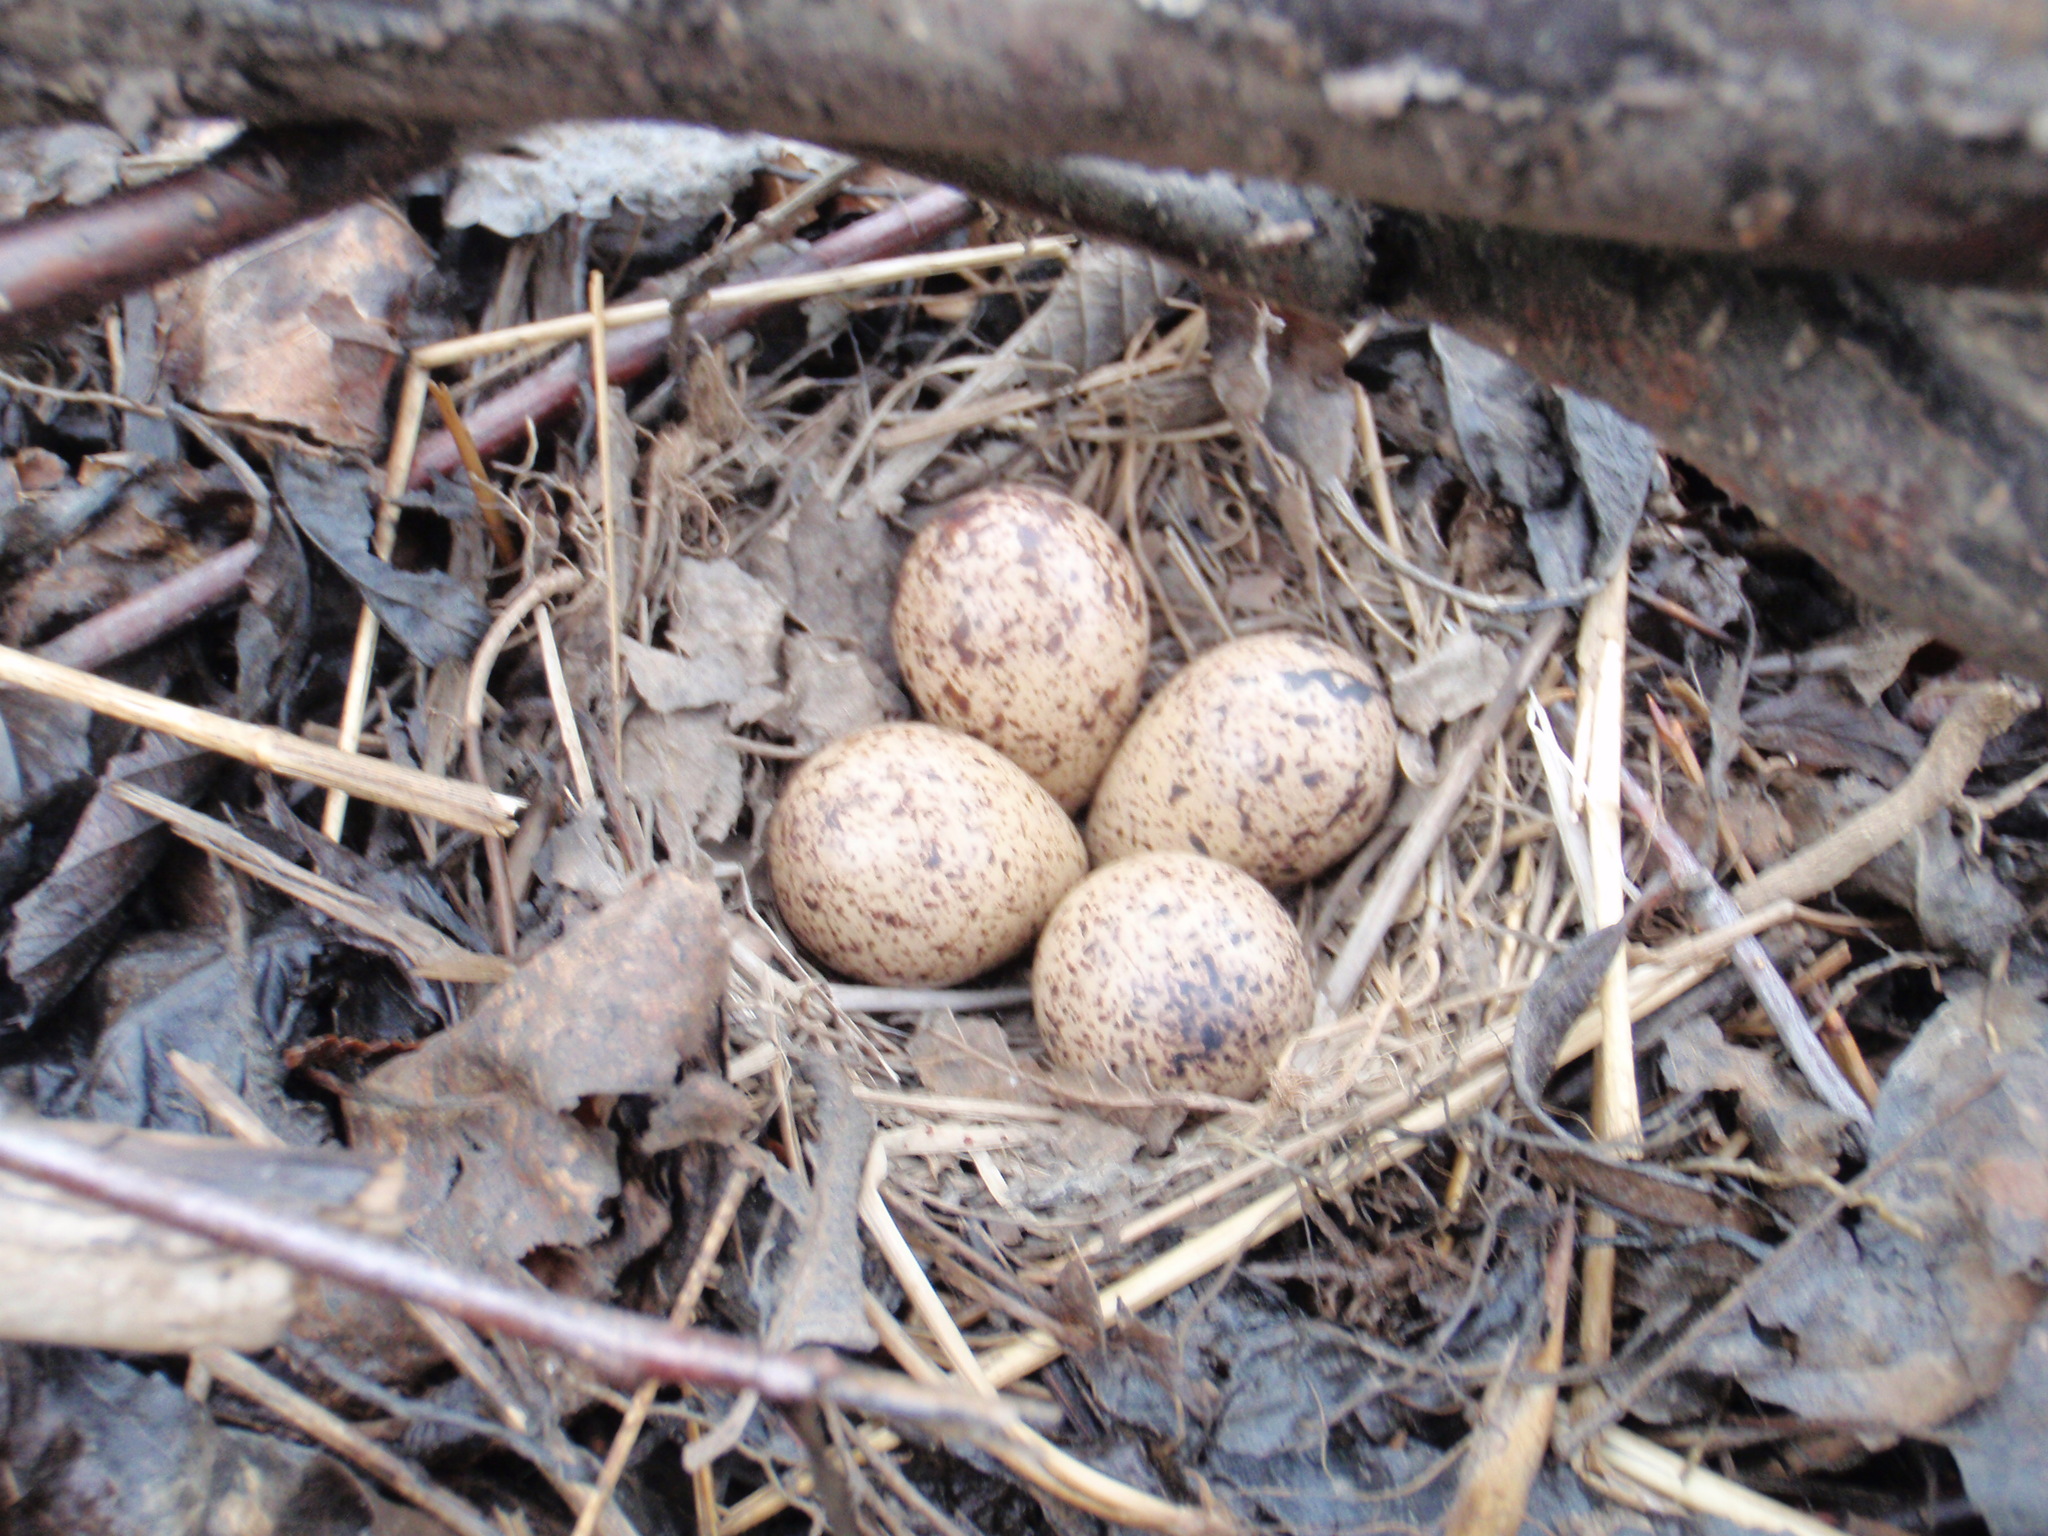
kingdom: Animalia
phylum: Chordata
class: Aves
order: Charadriiformes
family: Scolopacidae
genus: Actitis
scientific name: Actitis macularius
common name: Spotted sandpiper
